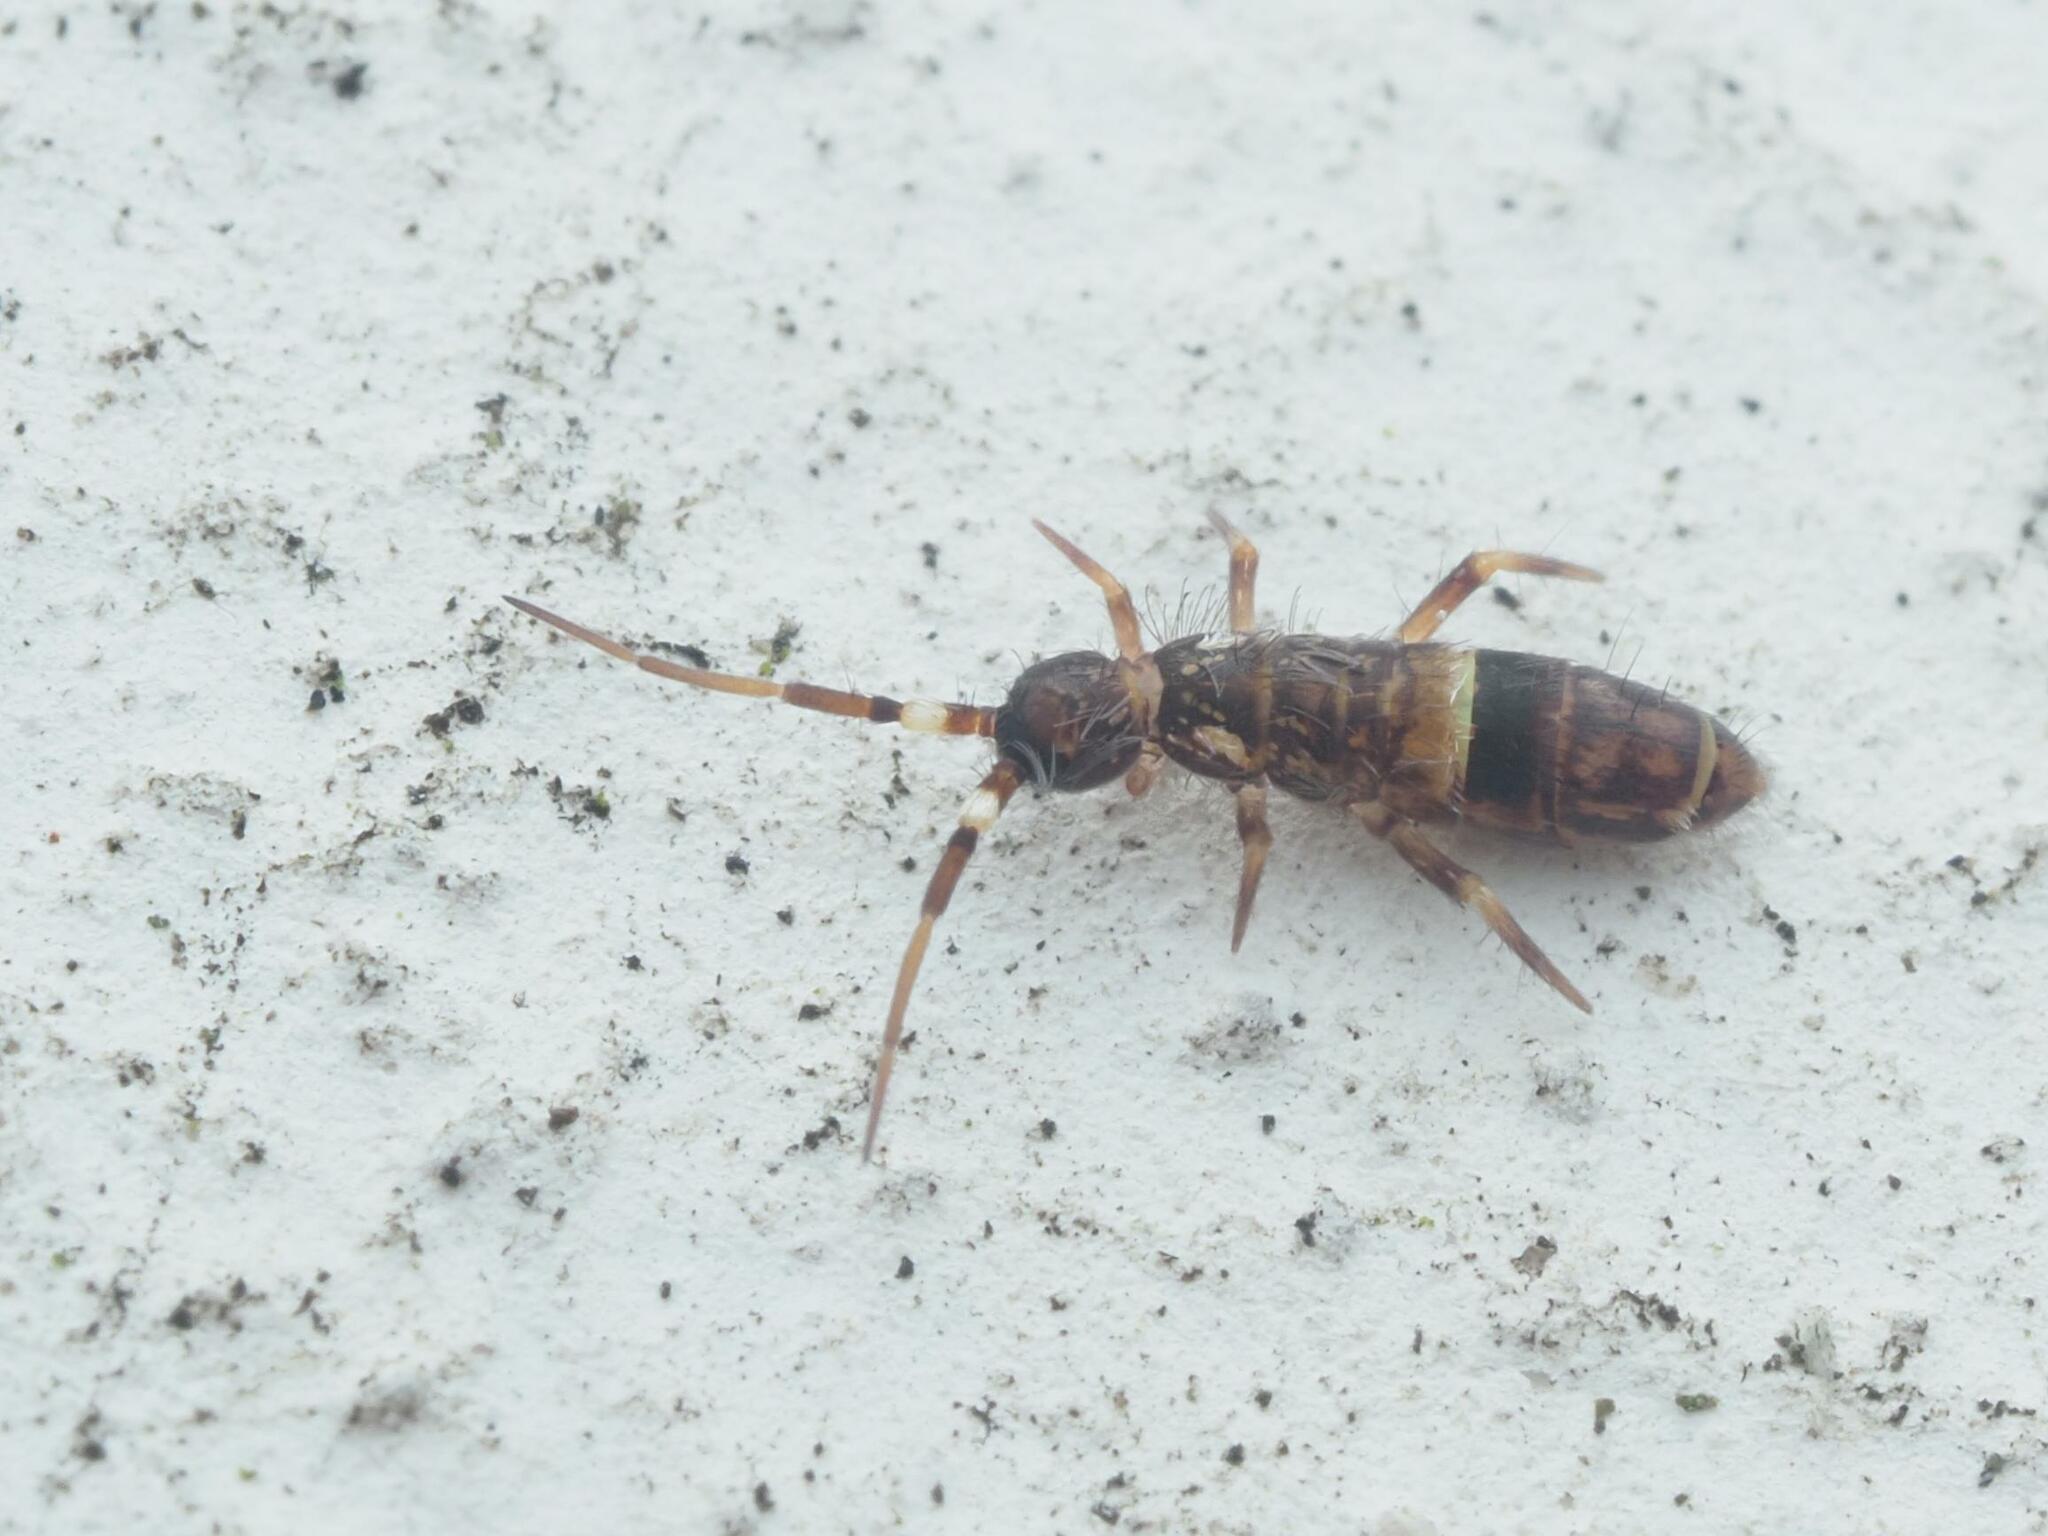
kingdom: Animalia
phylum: Arthropoda
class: Collembola
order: Entomobryomorpha
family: Orchesellidae
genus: Orchesella
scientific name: Orchesella cincta
